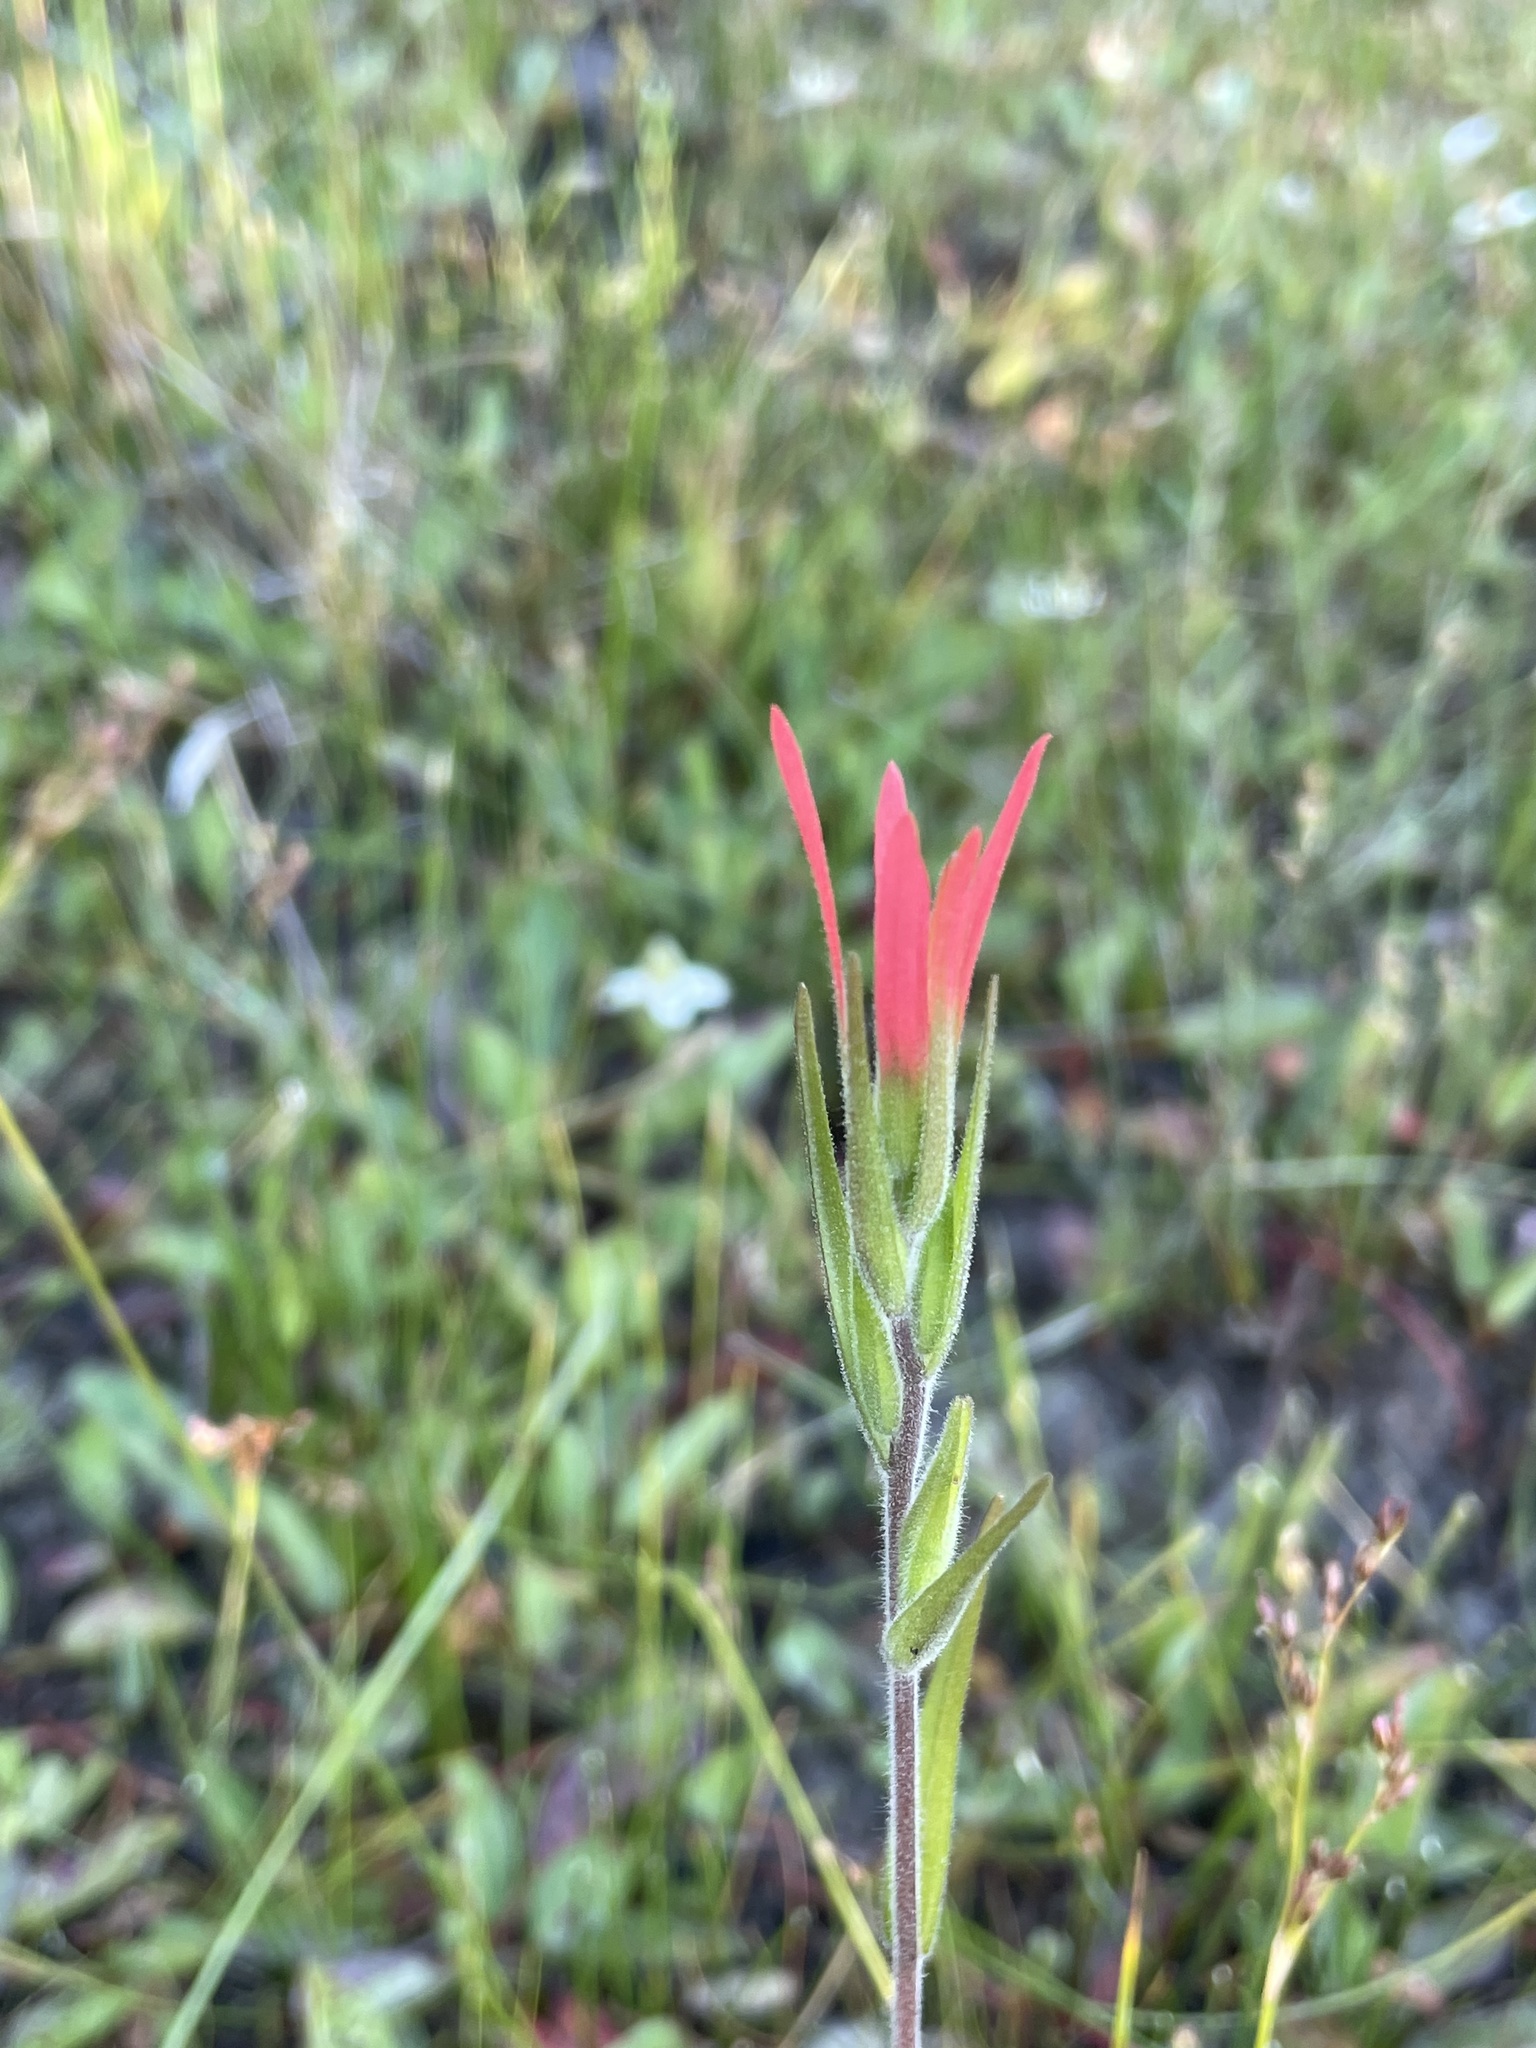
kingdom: Plantae
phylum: Tracheophyta
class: Magnoliopsida
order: Lamiales
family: Orobanchaceae
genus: Castilleja
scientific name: Castilleja minor
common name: Seep paintbrush
